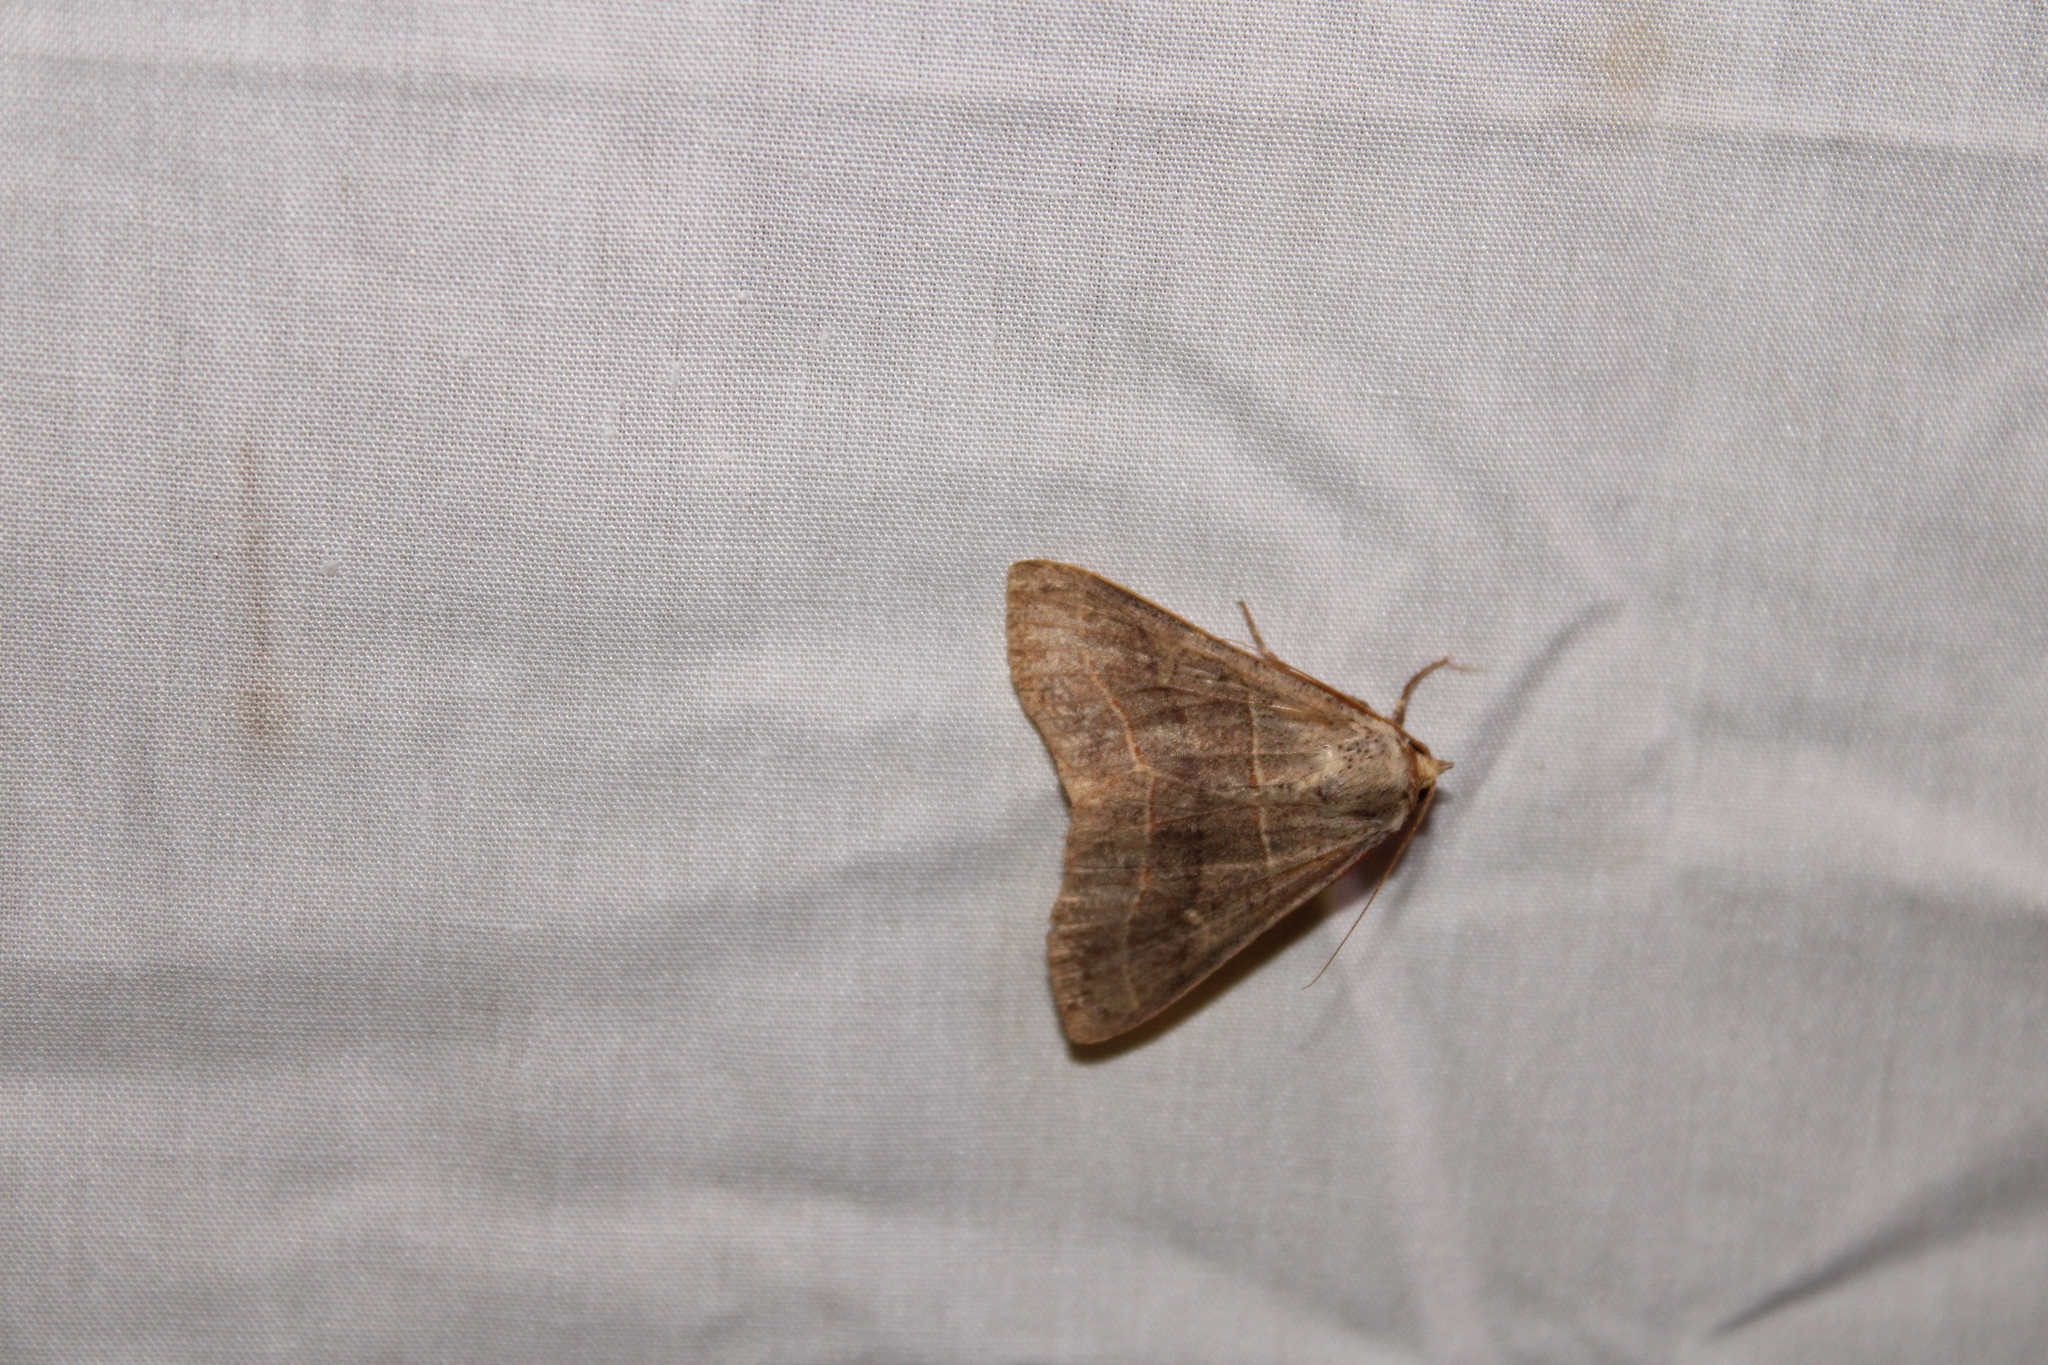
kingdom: Animalia
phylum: Arthropoda
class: Insecta
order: Lepidoptera
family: Erebidae
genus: Panopoda
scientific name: Panopoda rufimargo
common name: Red-lined panopoda moth
